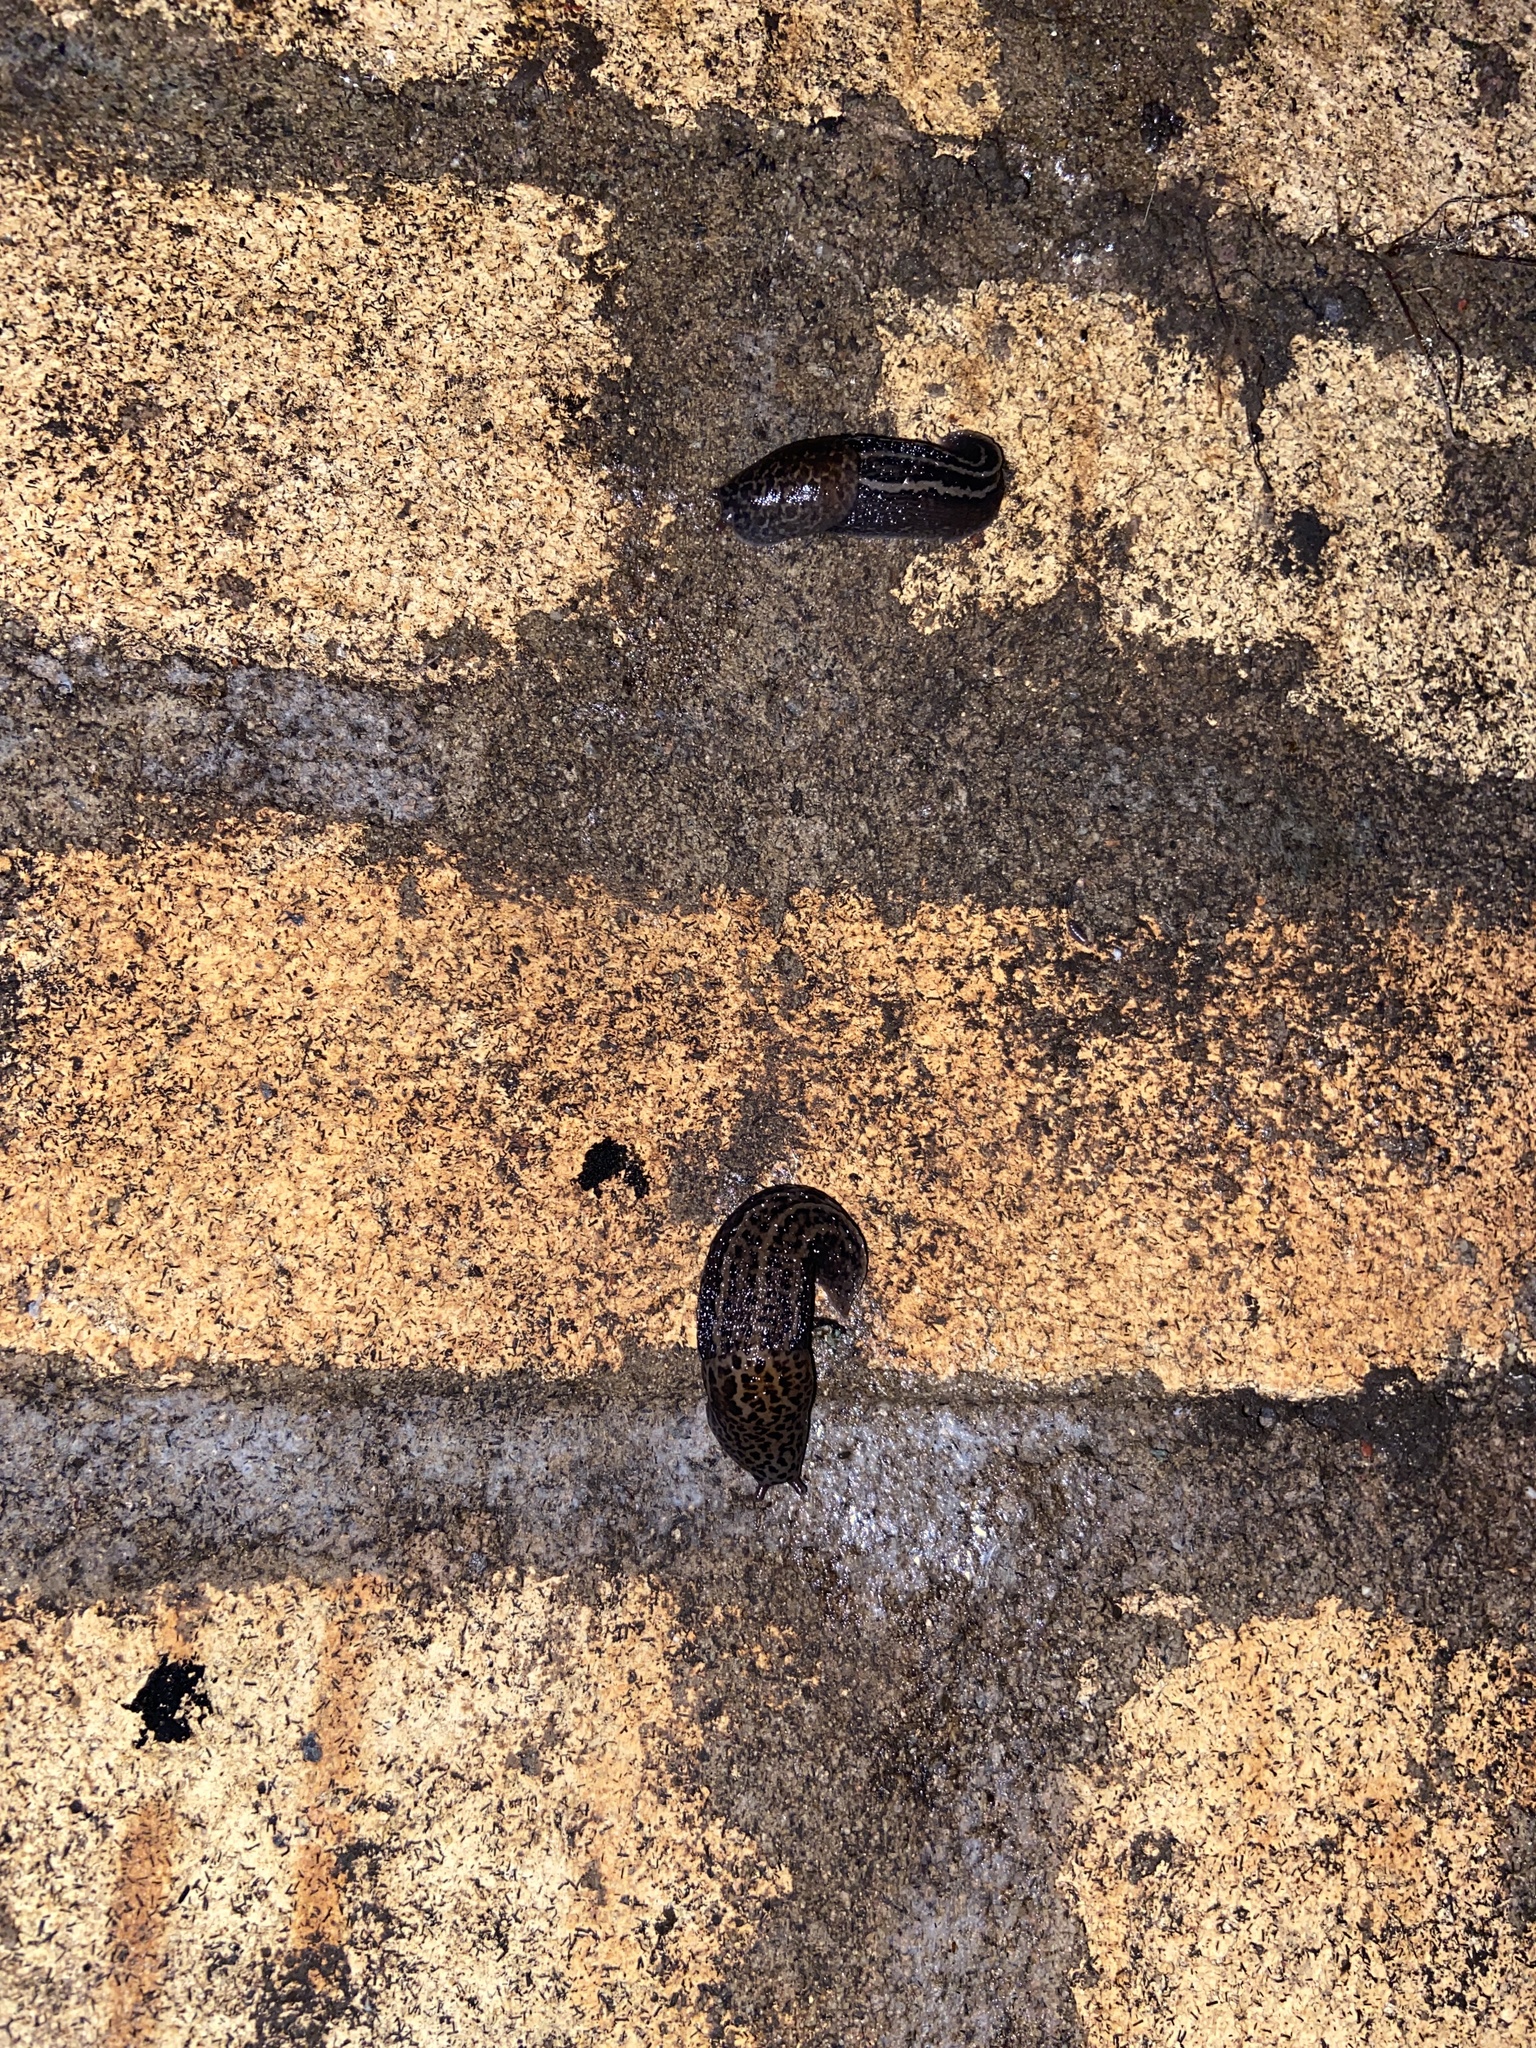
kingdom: Animalia
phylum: Mollusca
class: Gastropoda
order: Stylommatophora
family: Limacidae
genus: Limax
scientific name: Limax maximus
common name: Great grey slug
